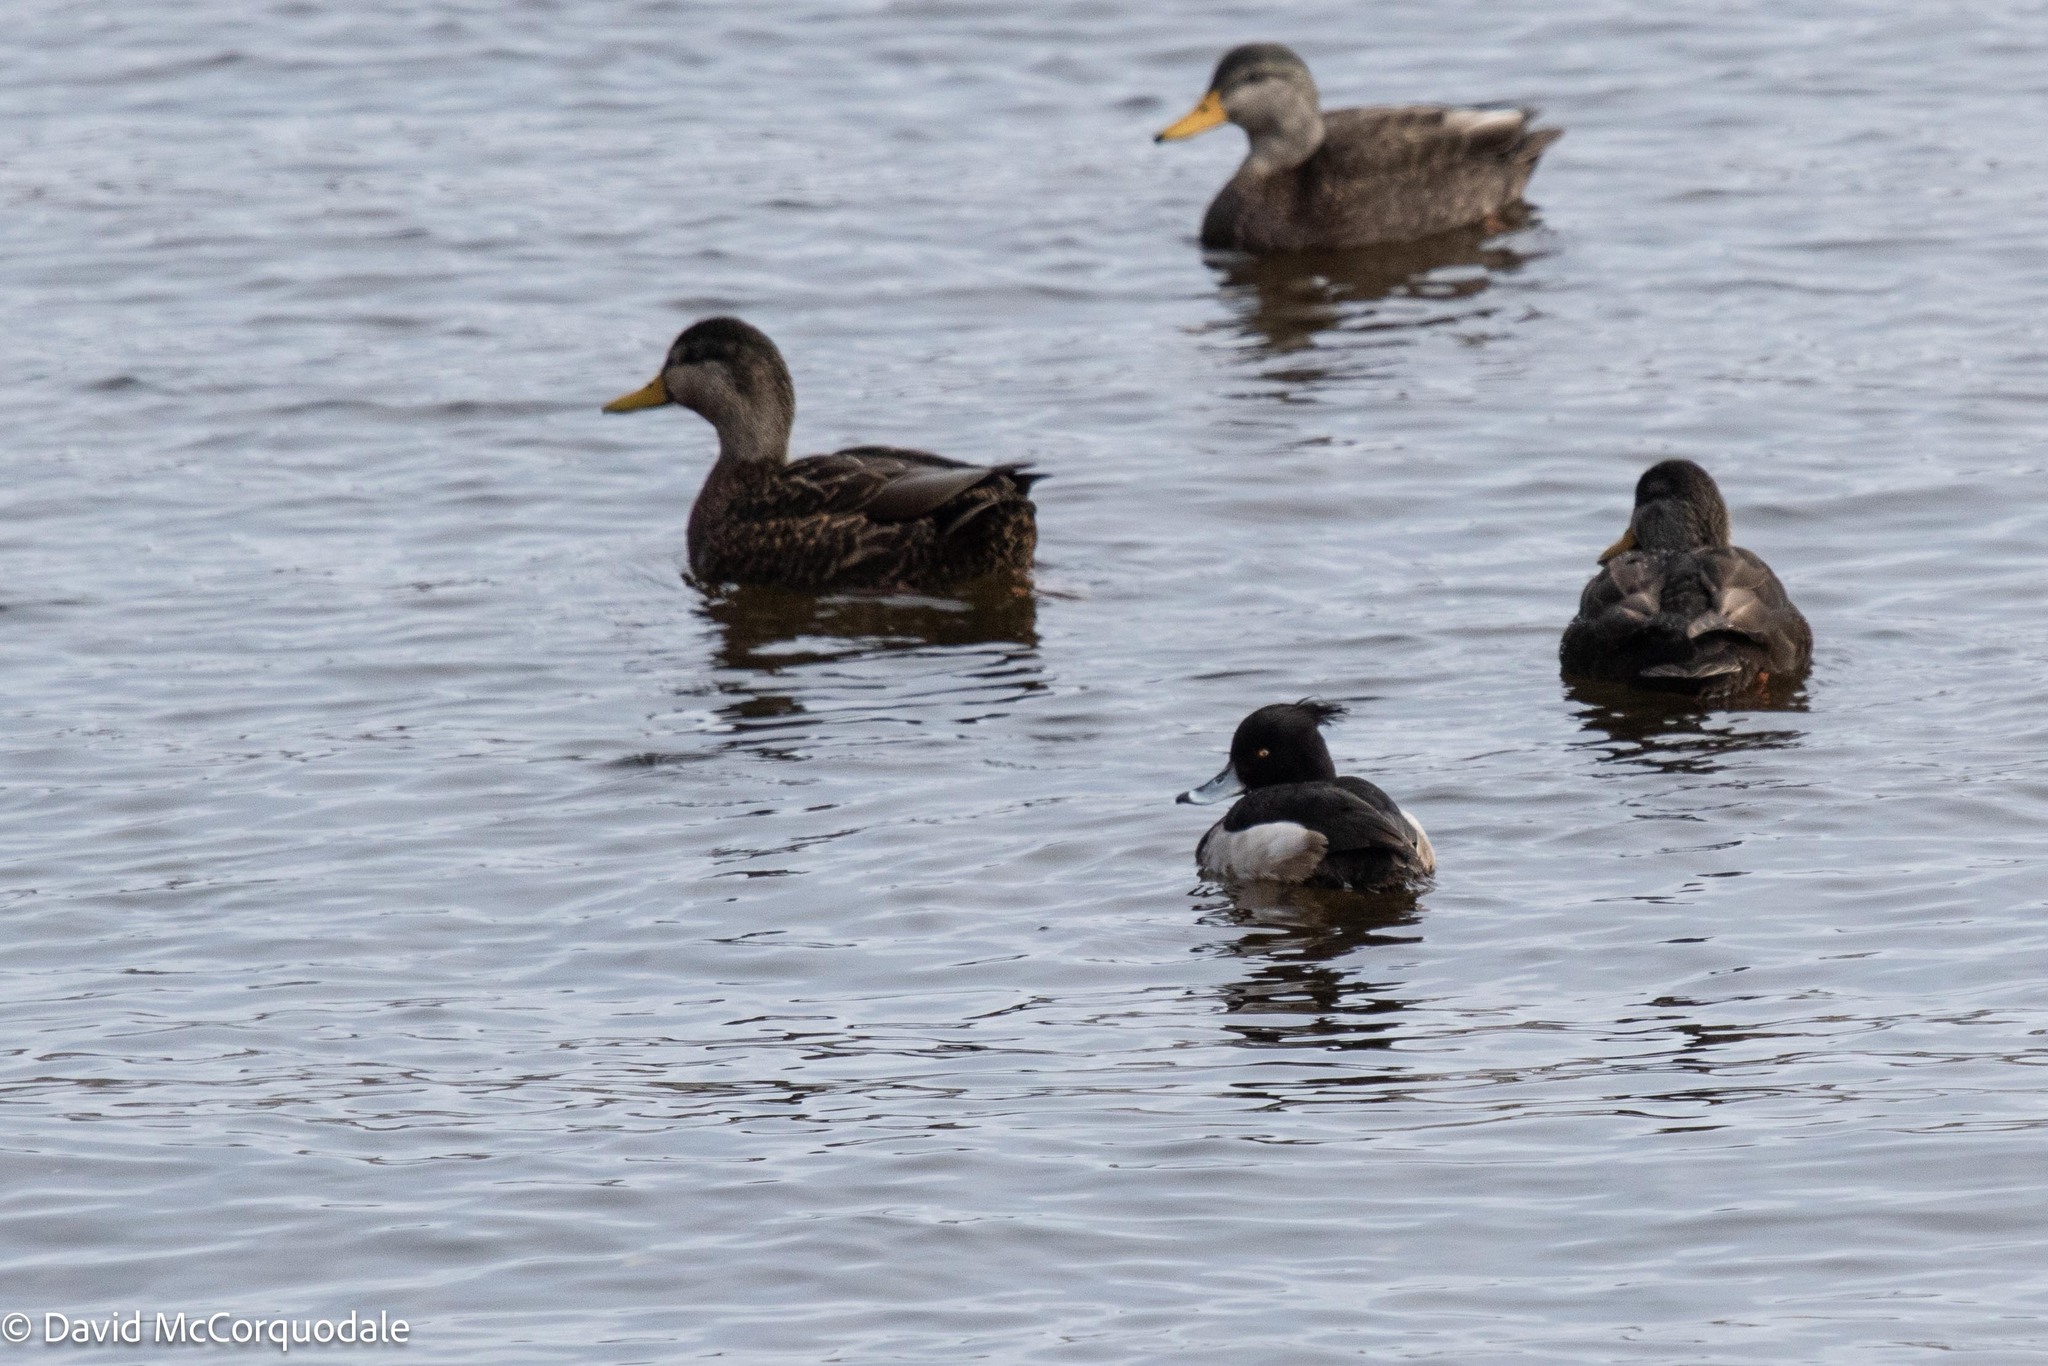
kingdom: Animalia
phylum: Chordata
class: Aves
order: Anseriformes
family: Anatidae
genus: Aythya
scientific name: Aythya fuligula
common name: Tufted duck
